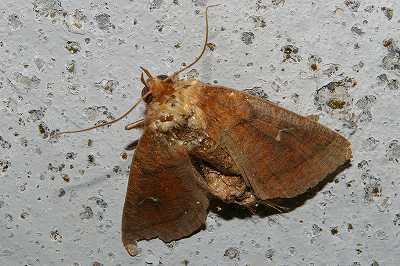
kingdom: Animalia
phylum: Arthropoda
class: Insecta
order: Lepidoptera
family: Noctuidae
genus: Mythimna
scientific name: Mythimna turca
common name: Double line
